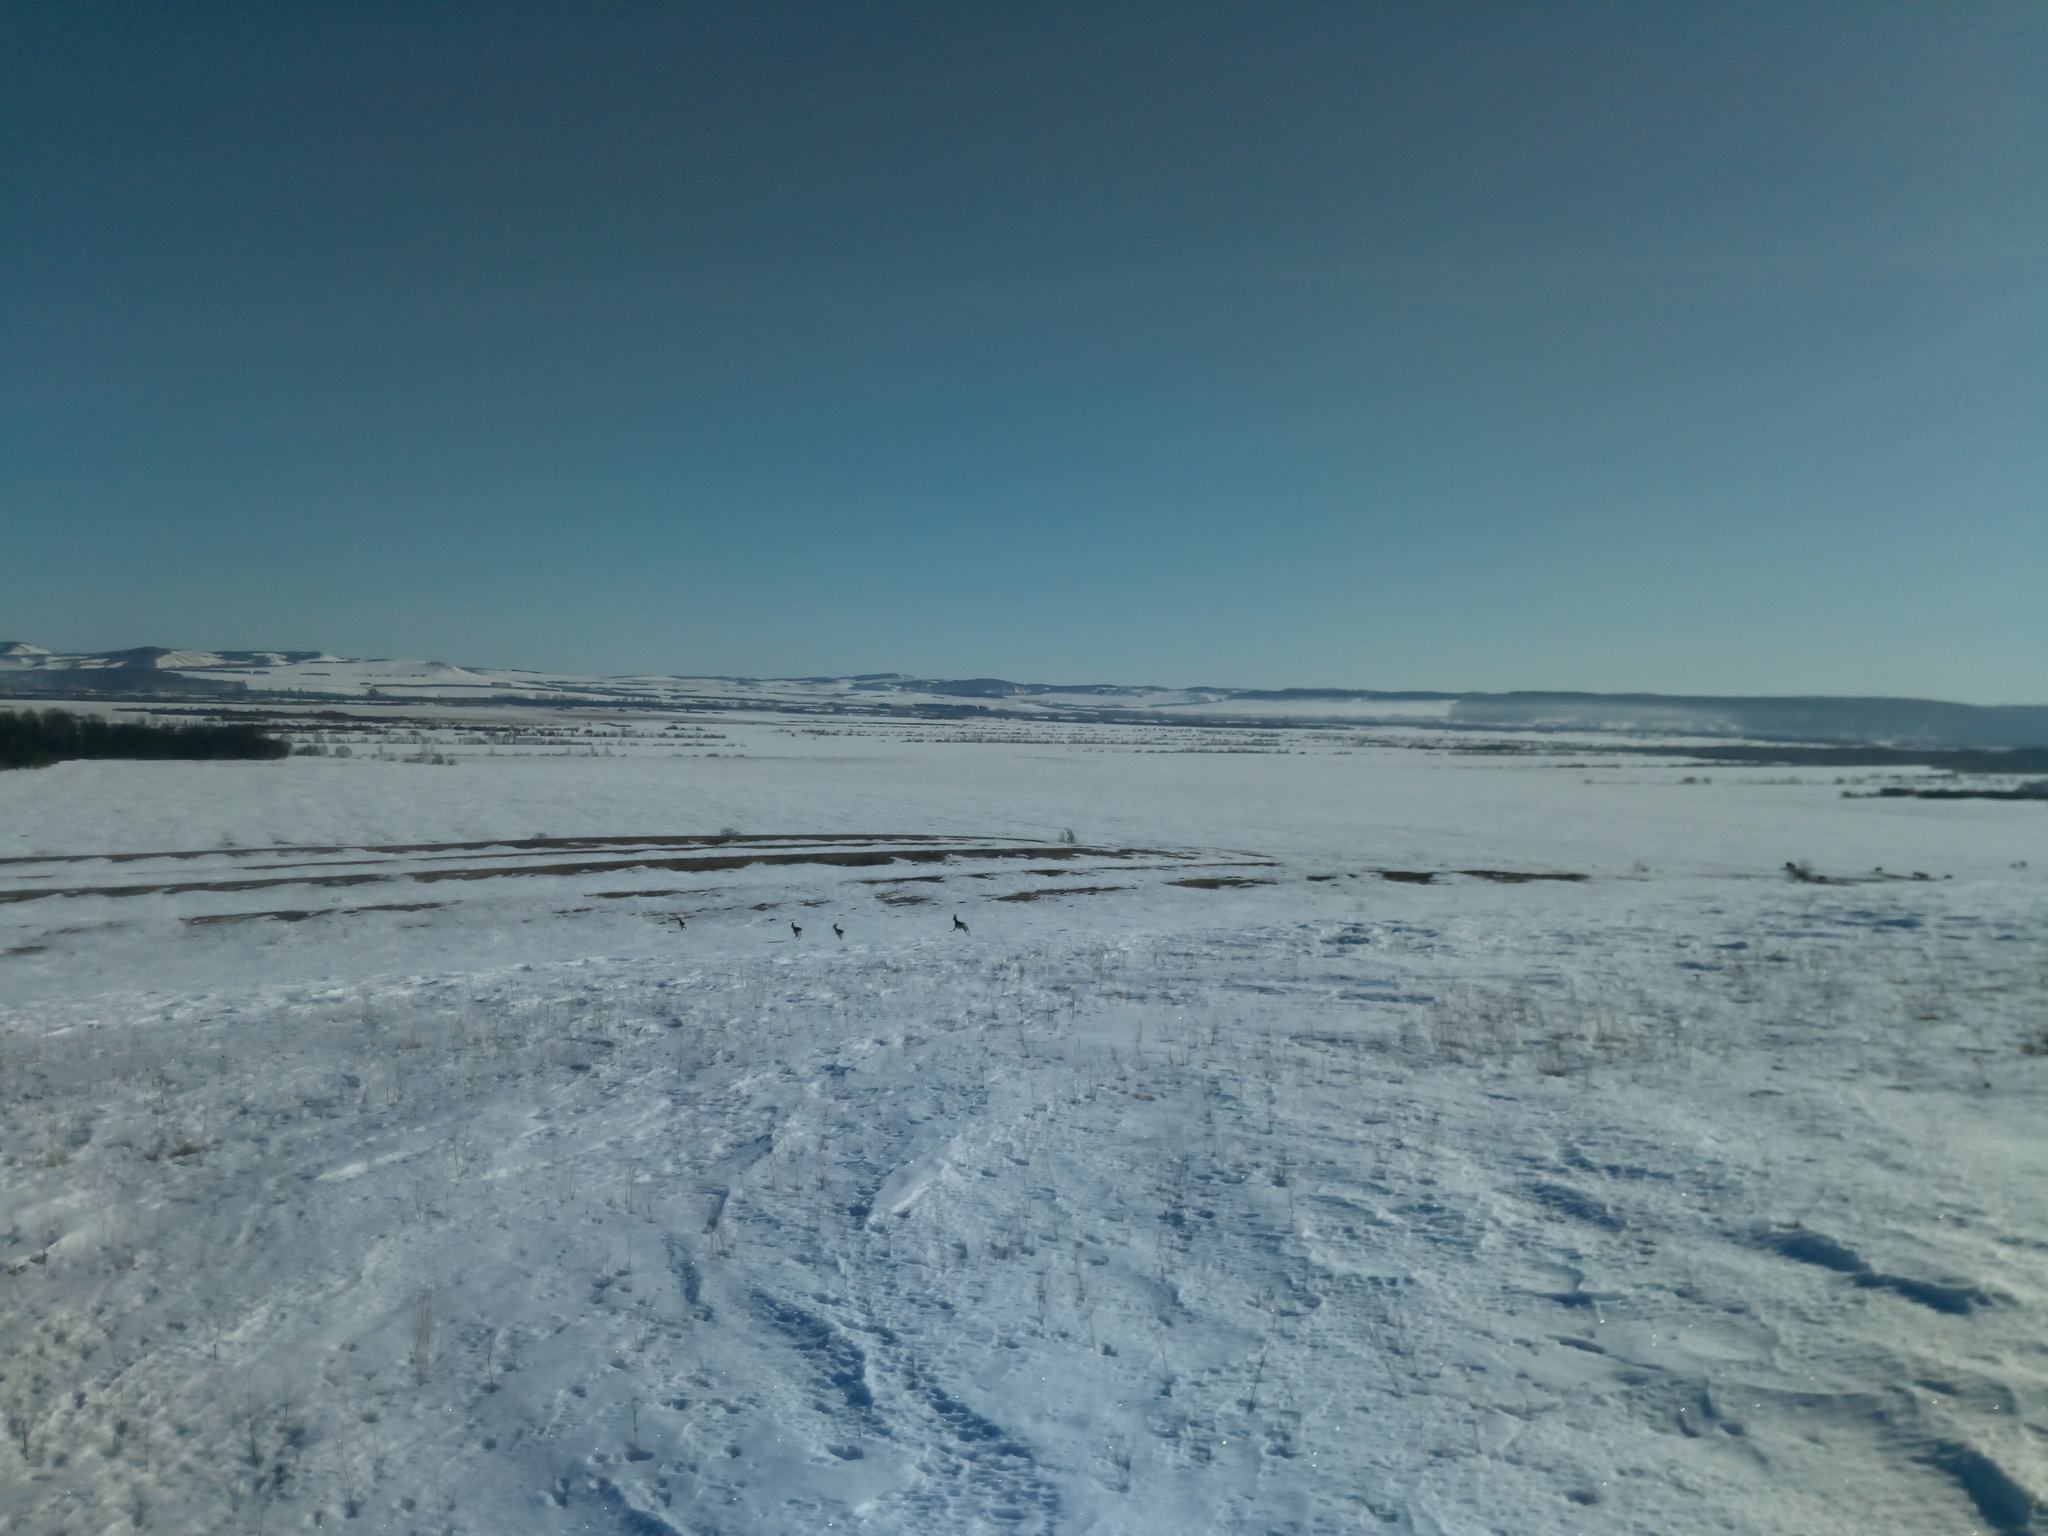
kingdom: Animalia
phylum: Chordata
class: Mammalia
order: Artiodactyla
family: Cervidae
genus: Capreolus
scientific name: Capreolus pygargus
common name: Siberian roe
